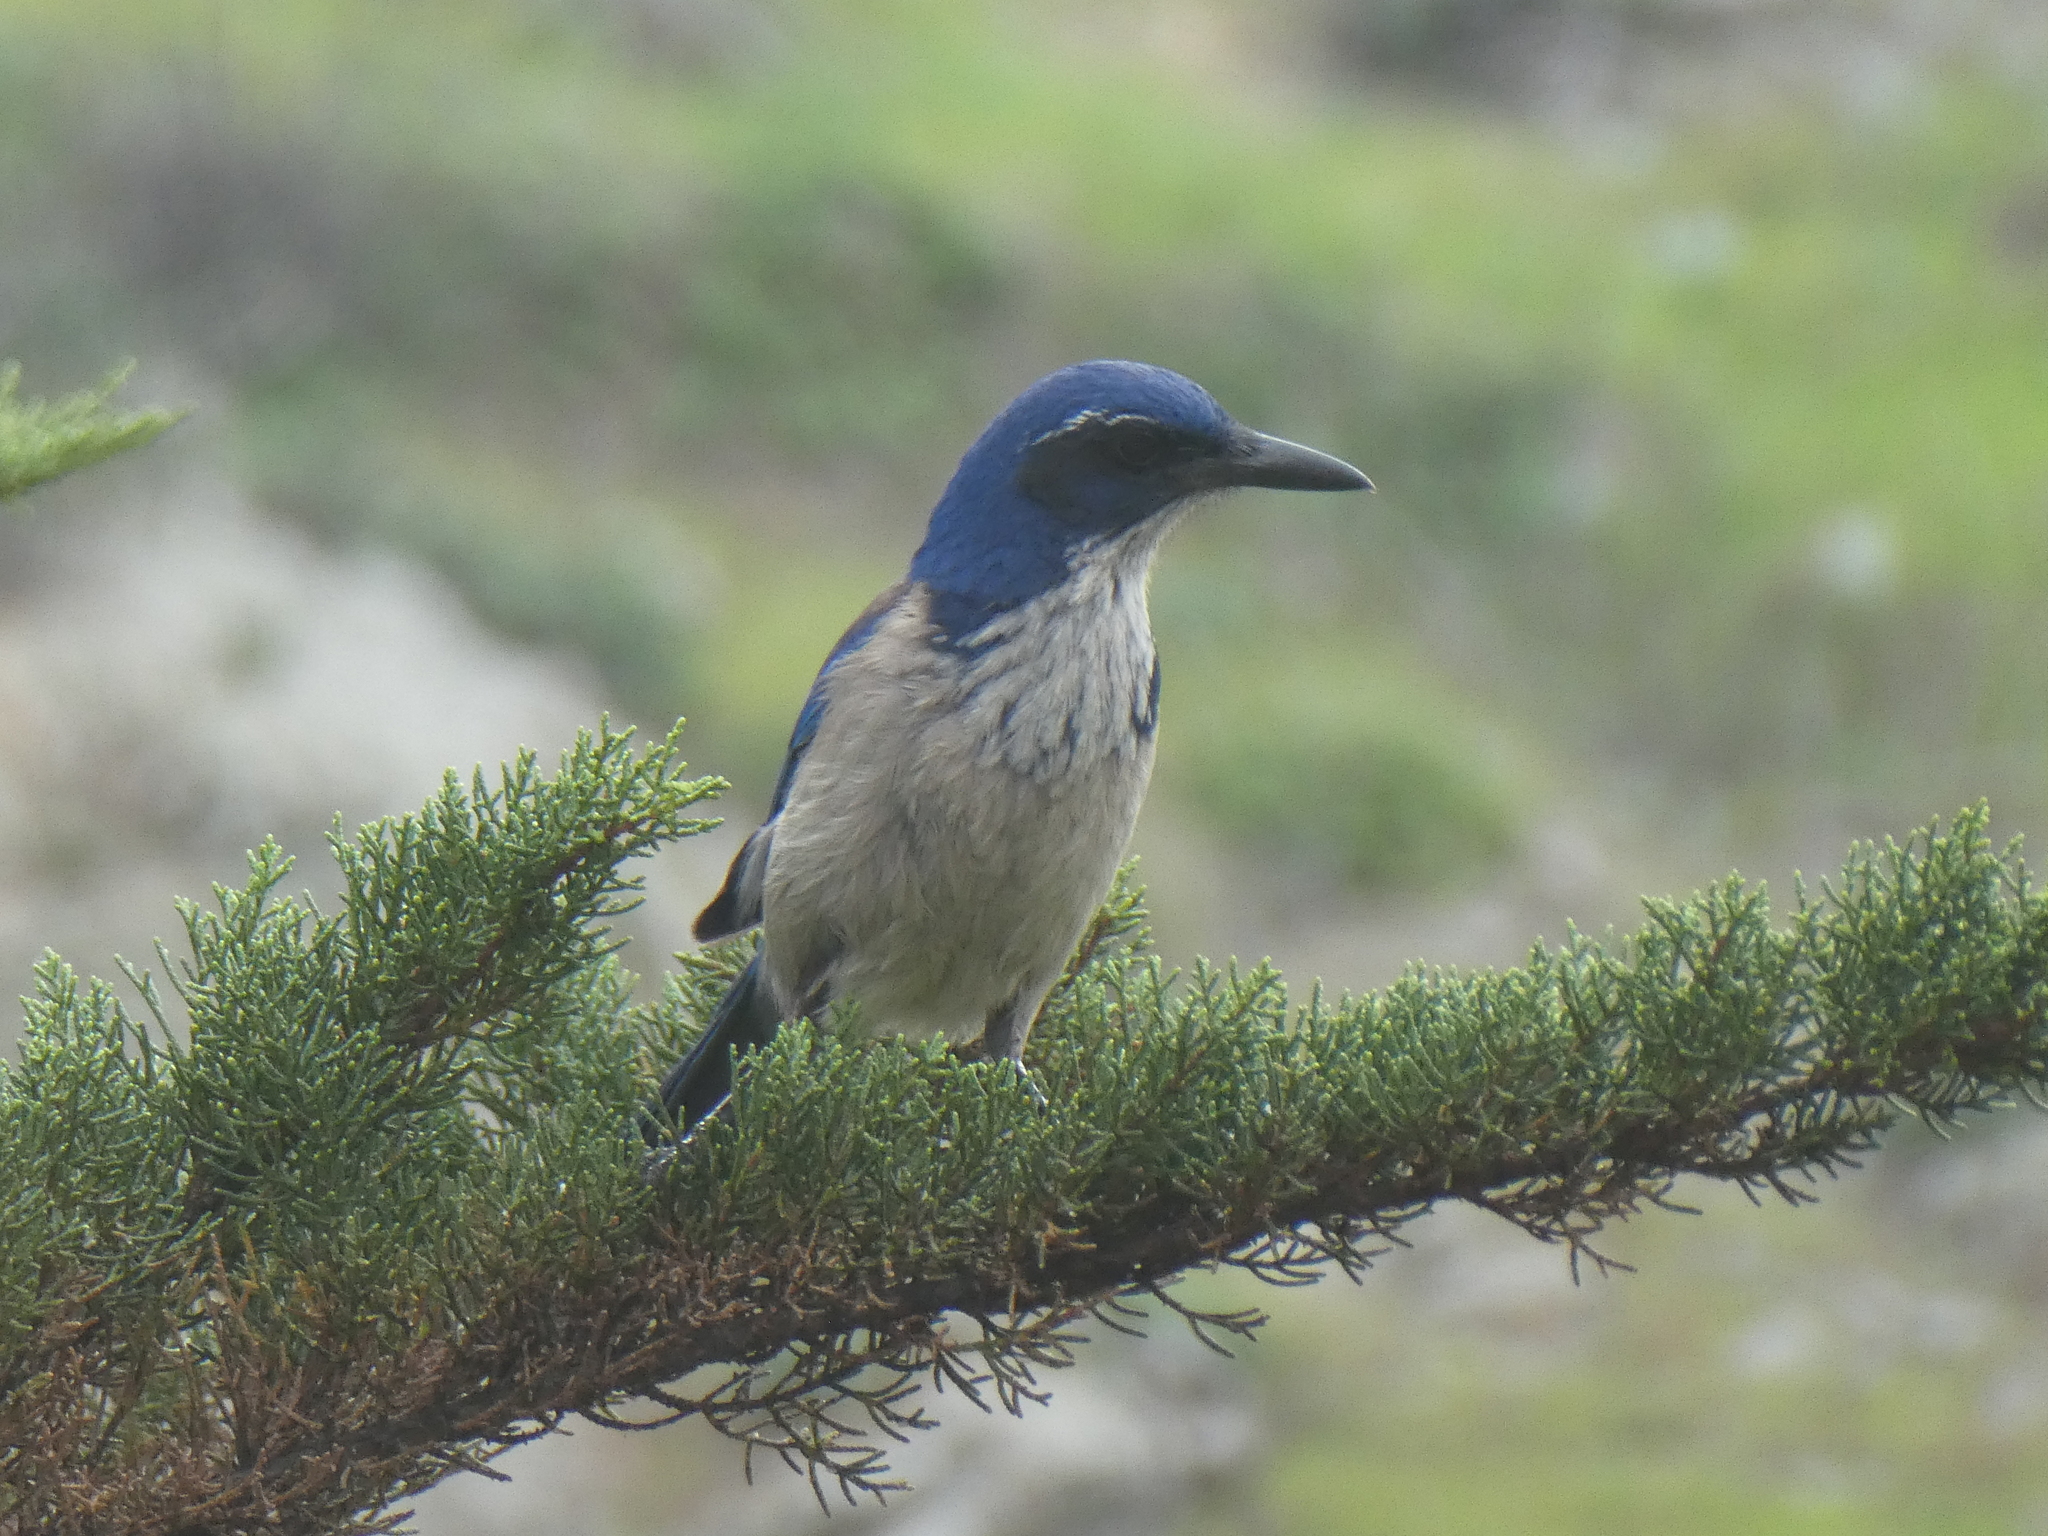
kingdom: Animalia
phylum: Chordata
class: Aves
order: Passeriformes
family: Corvidae
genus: Aphelocoma
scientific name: Aphelocoma insularis
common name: Island scrub-jay
